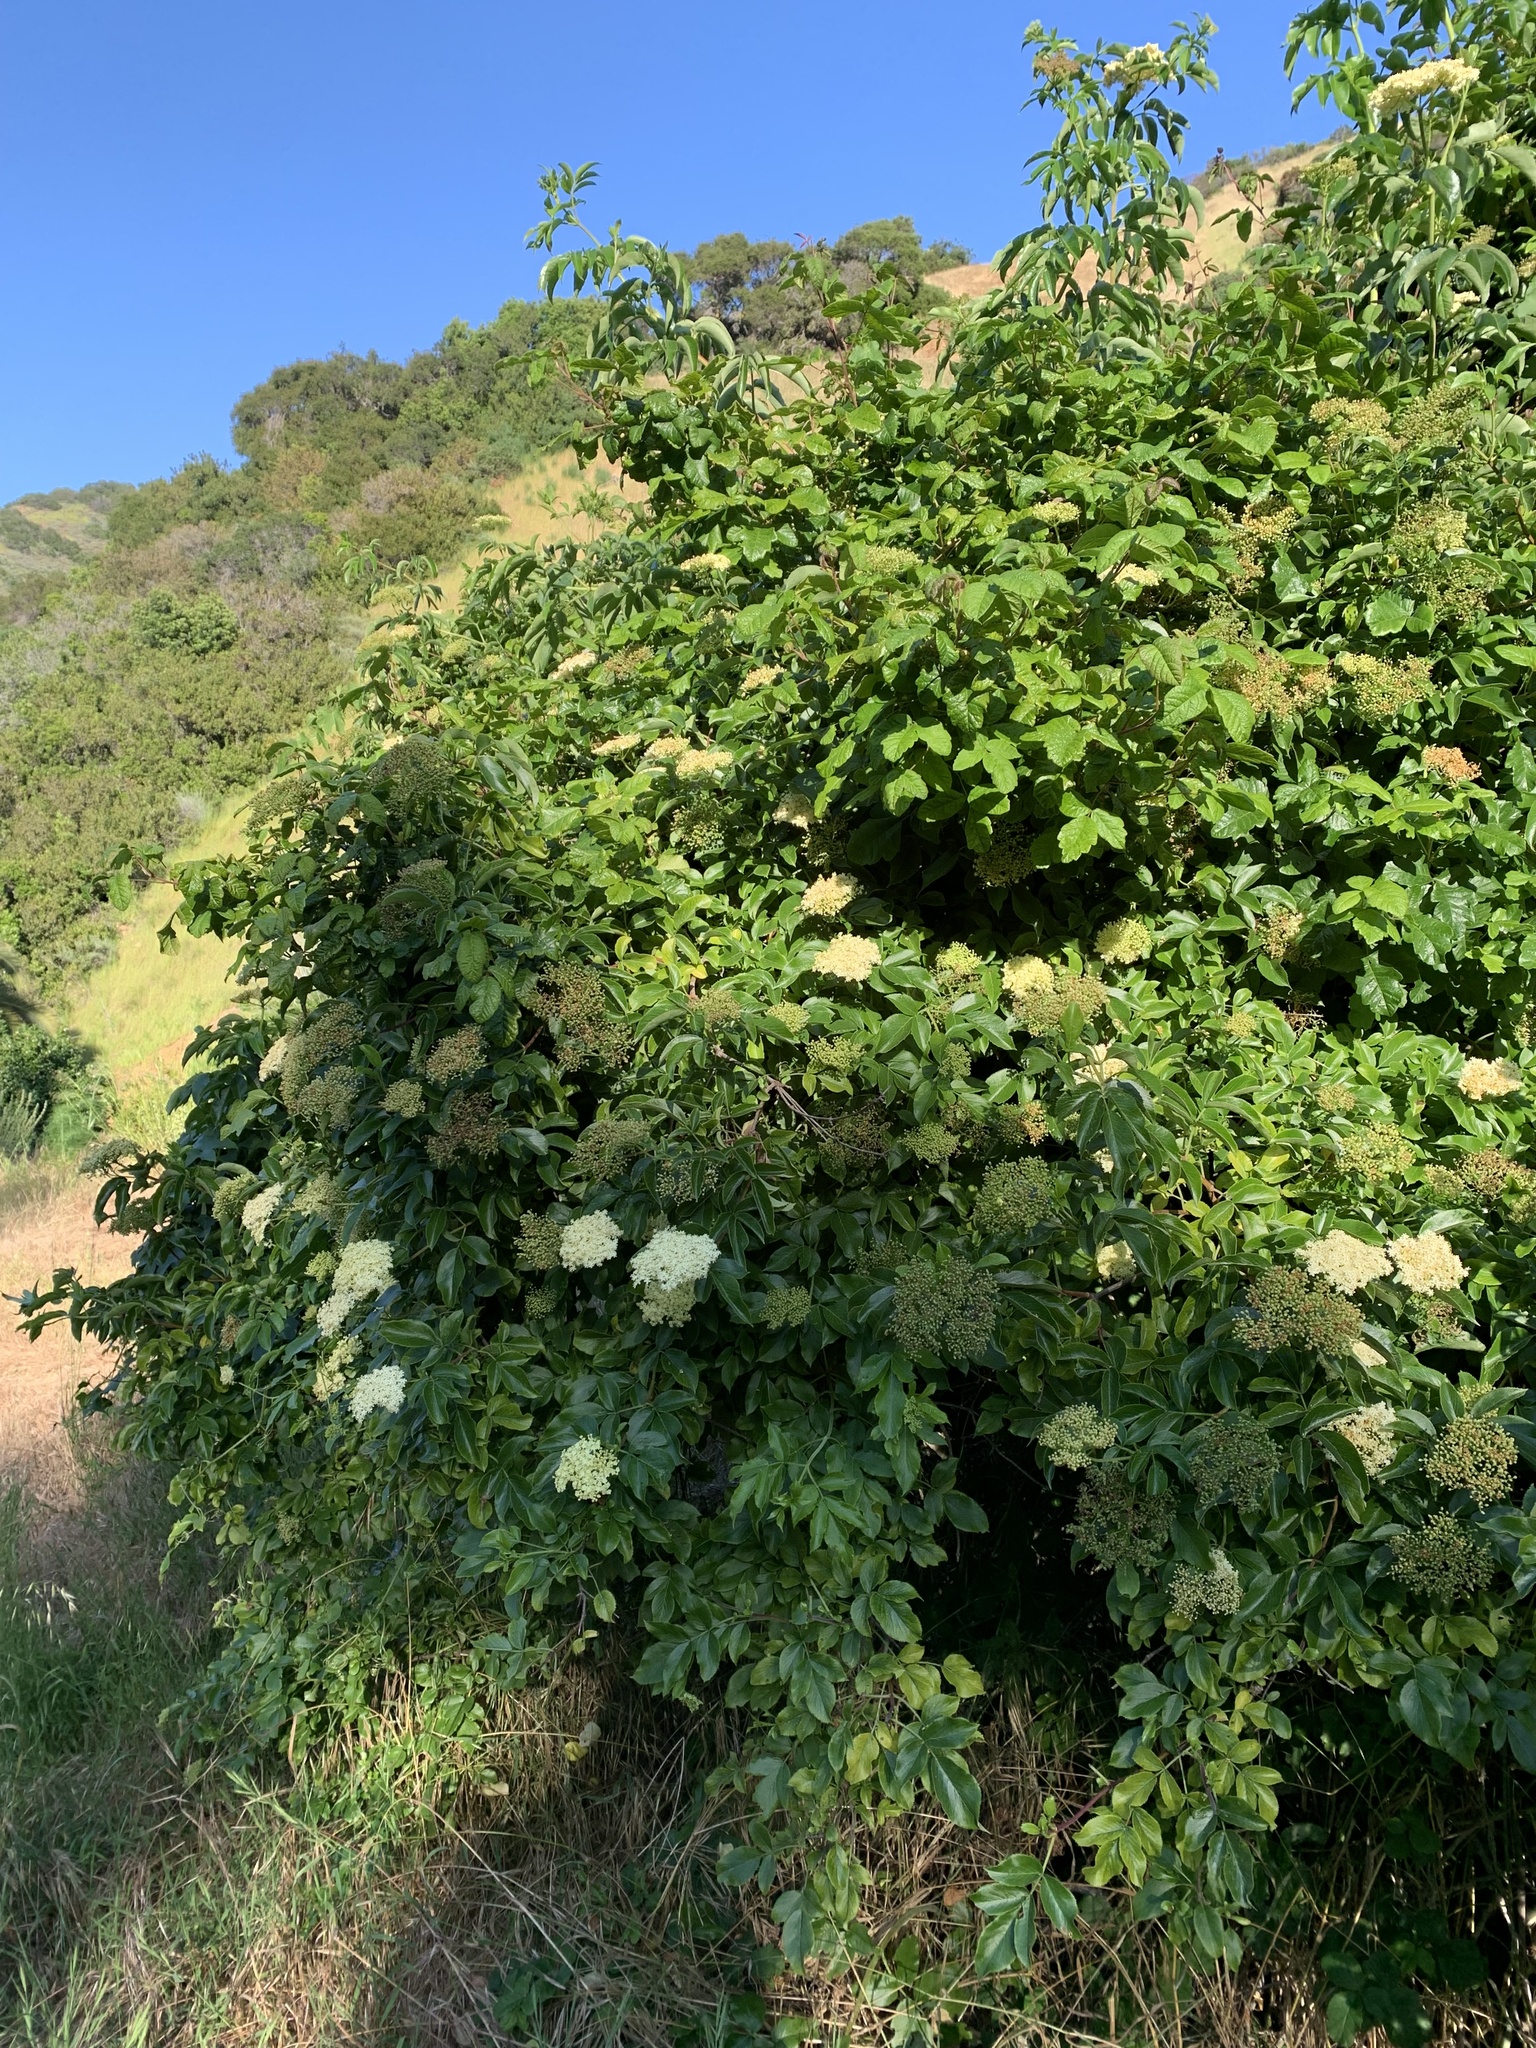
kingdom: Plantae
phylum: Tracheophyta
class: Magnoliopsida
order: Dipsacales
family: Viburnaceae
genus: Sambucus
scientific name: Sambucus cerulea
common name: Blue elder
